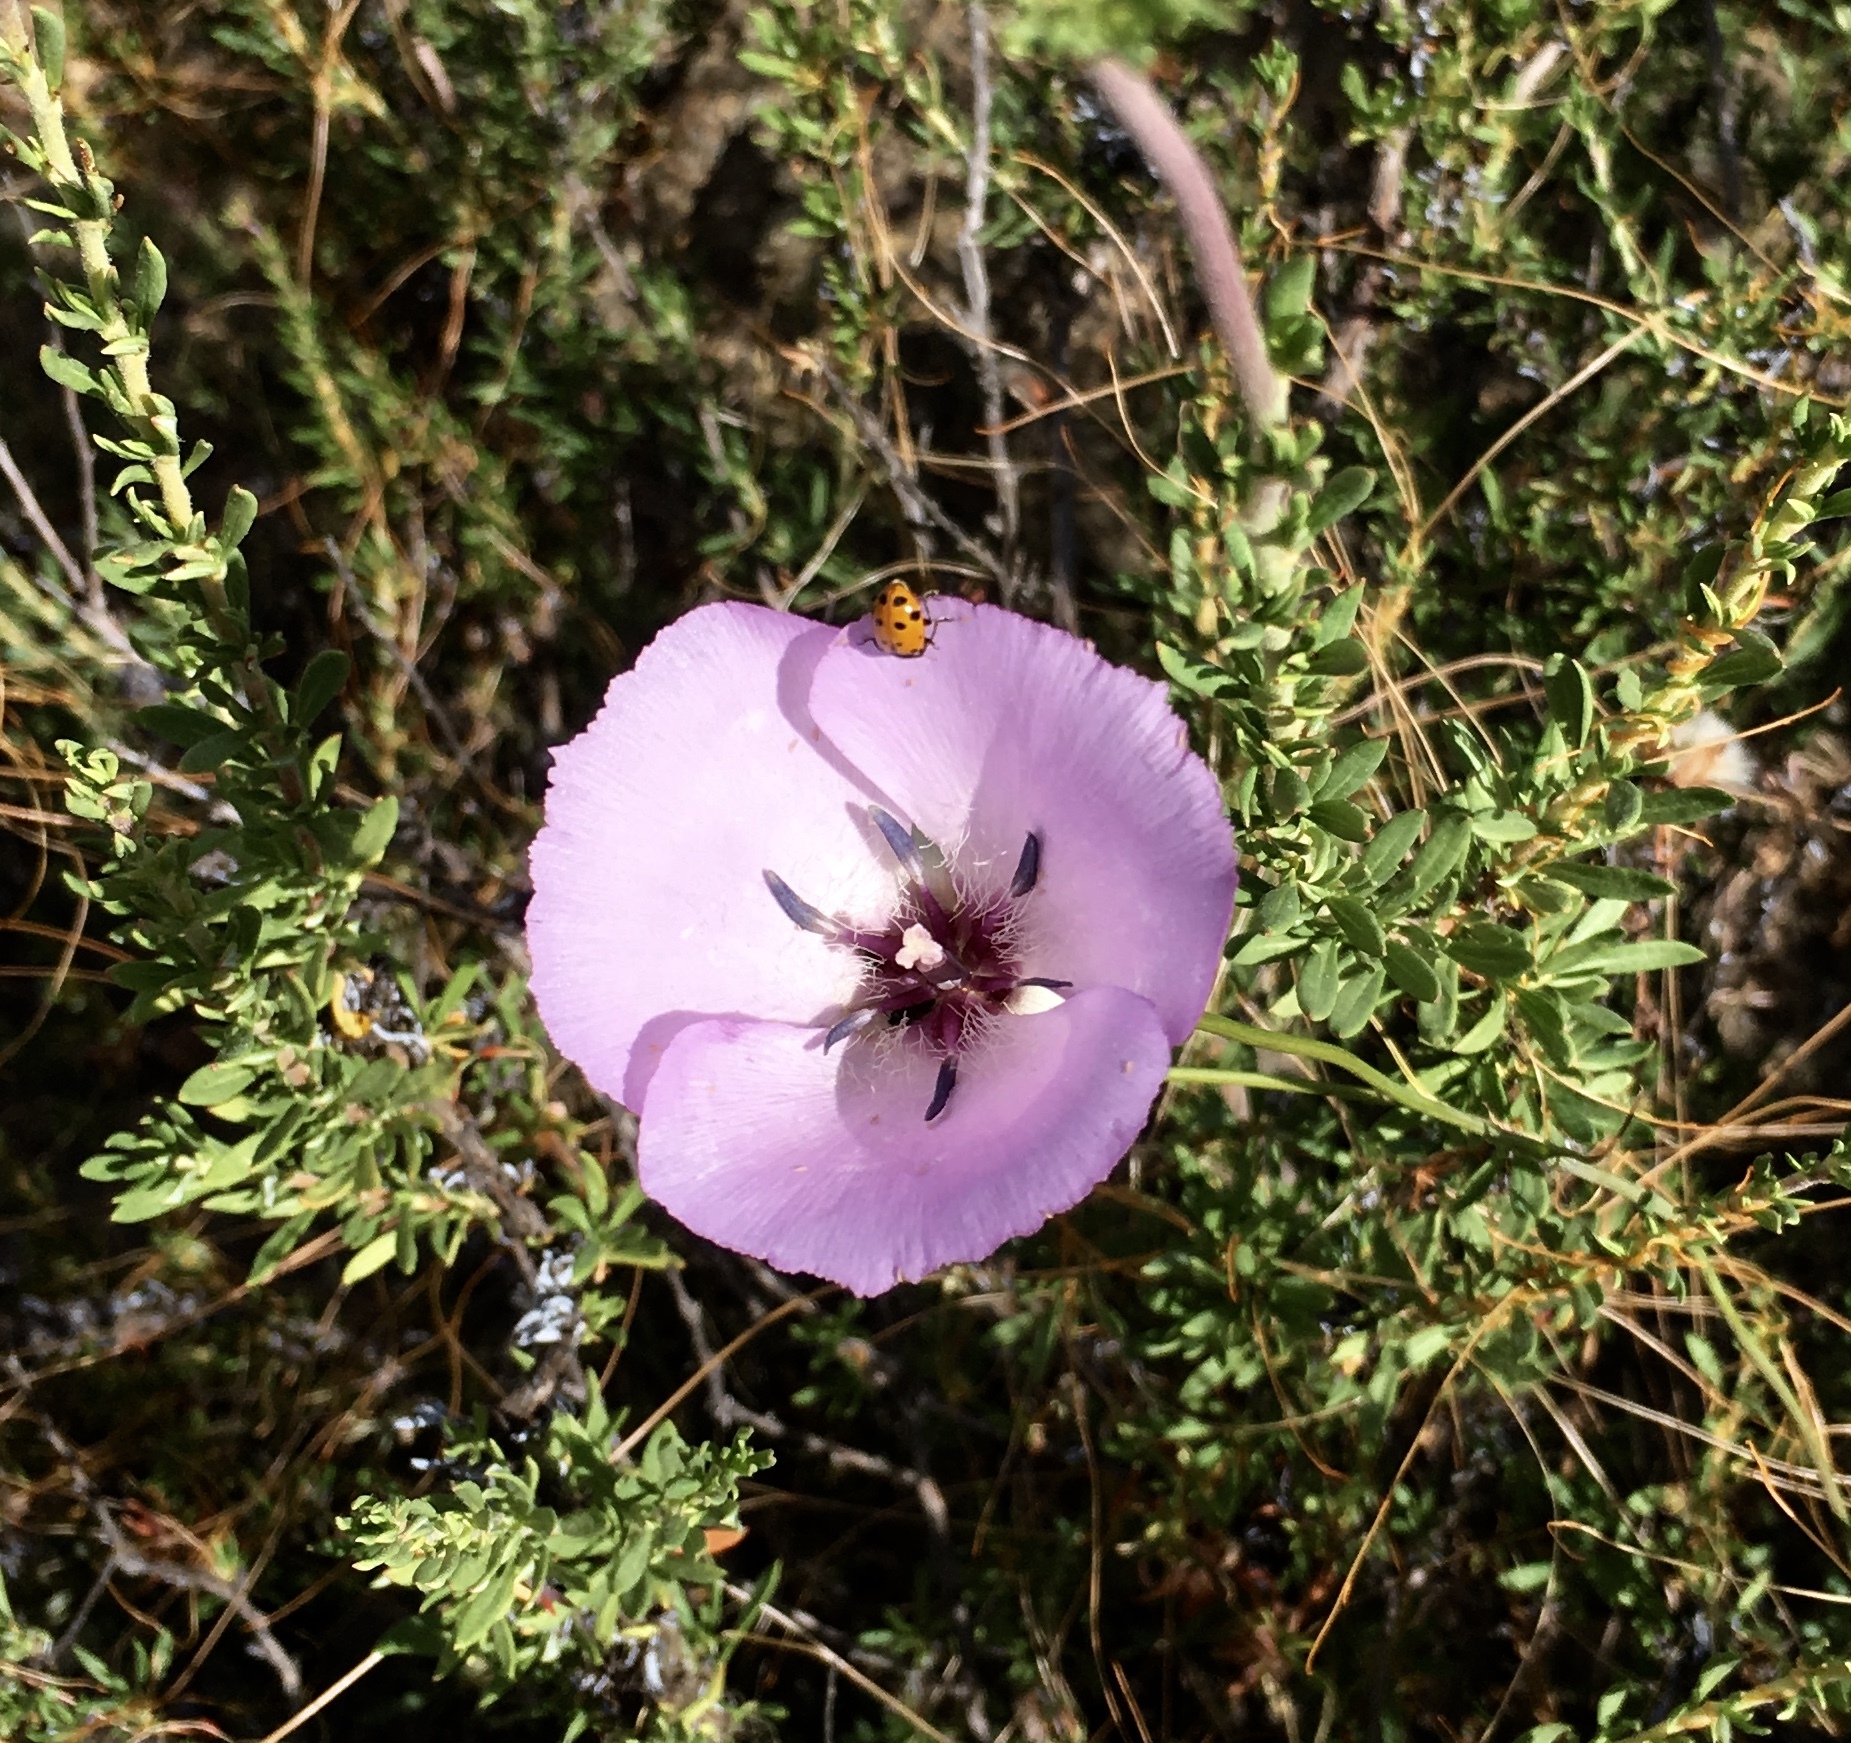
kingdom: Plantae
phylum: Tracheophyta
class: Liliopsida
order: Liliales
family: Liliaceae
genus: Calochortus
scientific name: Calochortus splendens
